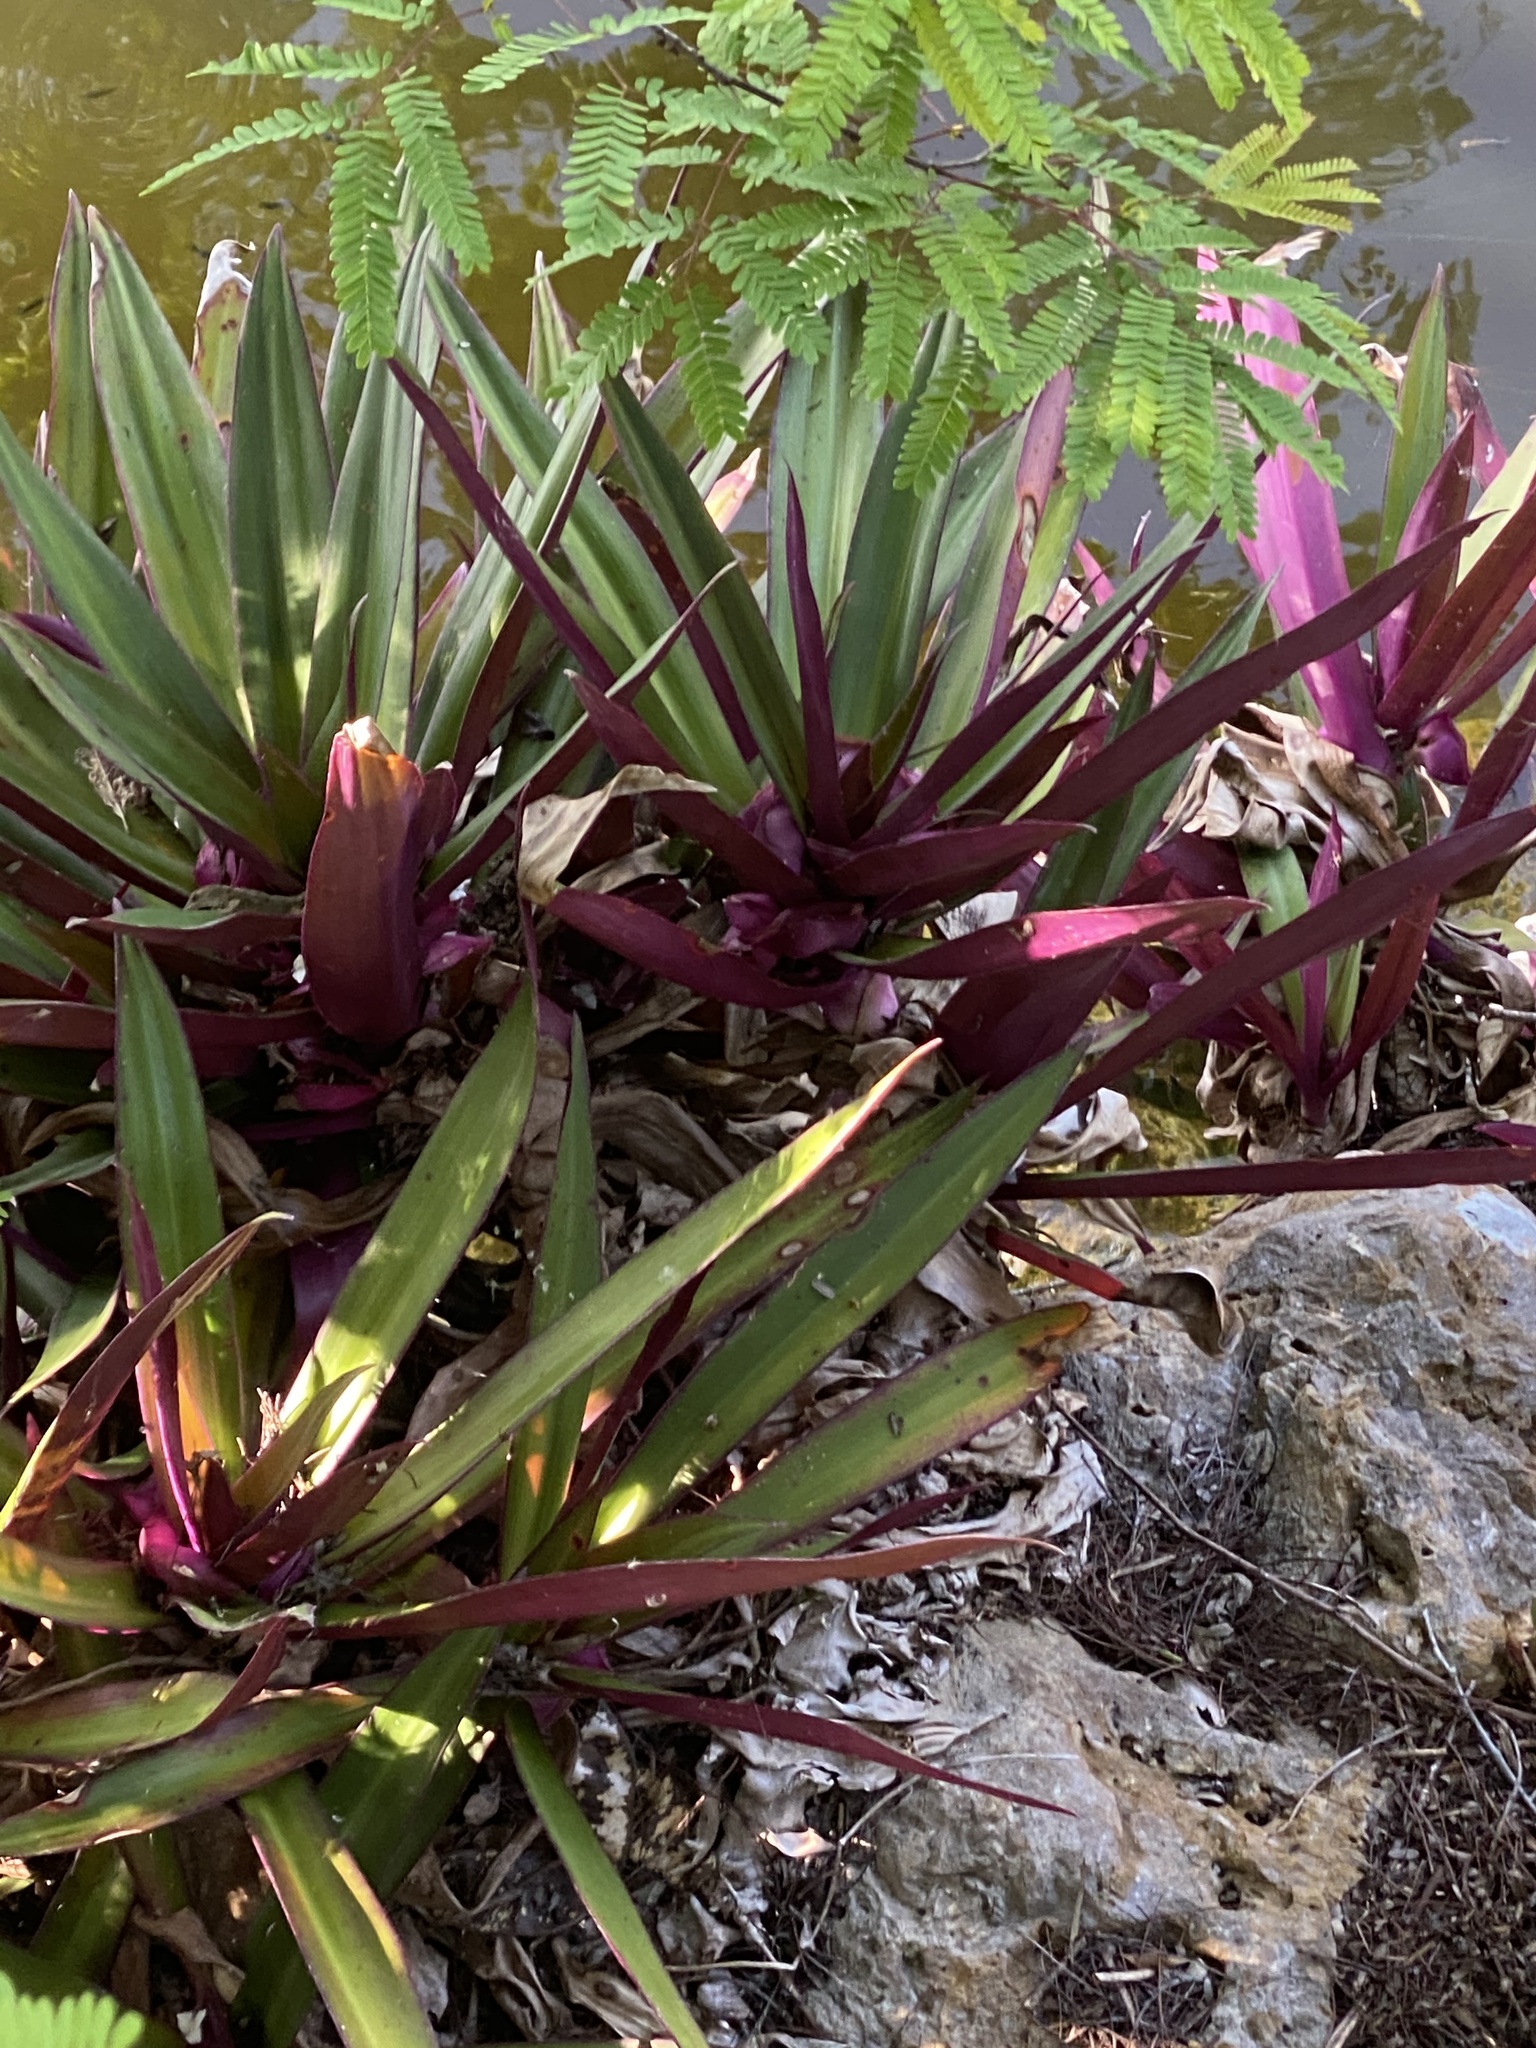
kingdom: Plantae
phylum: Tracheophyta
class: Liliopsida
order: Commelinales
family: Commelinaceae
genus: Tradescantia
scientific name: Tradescantia spathacea
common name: Boatlily
